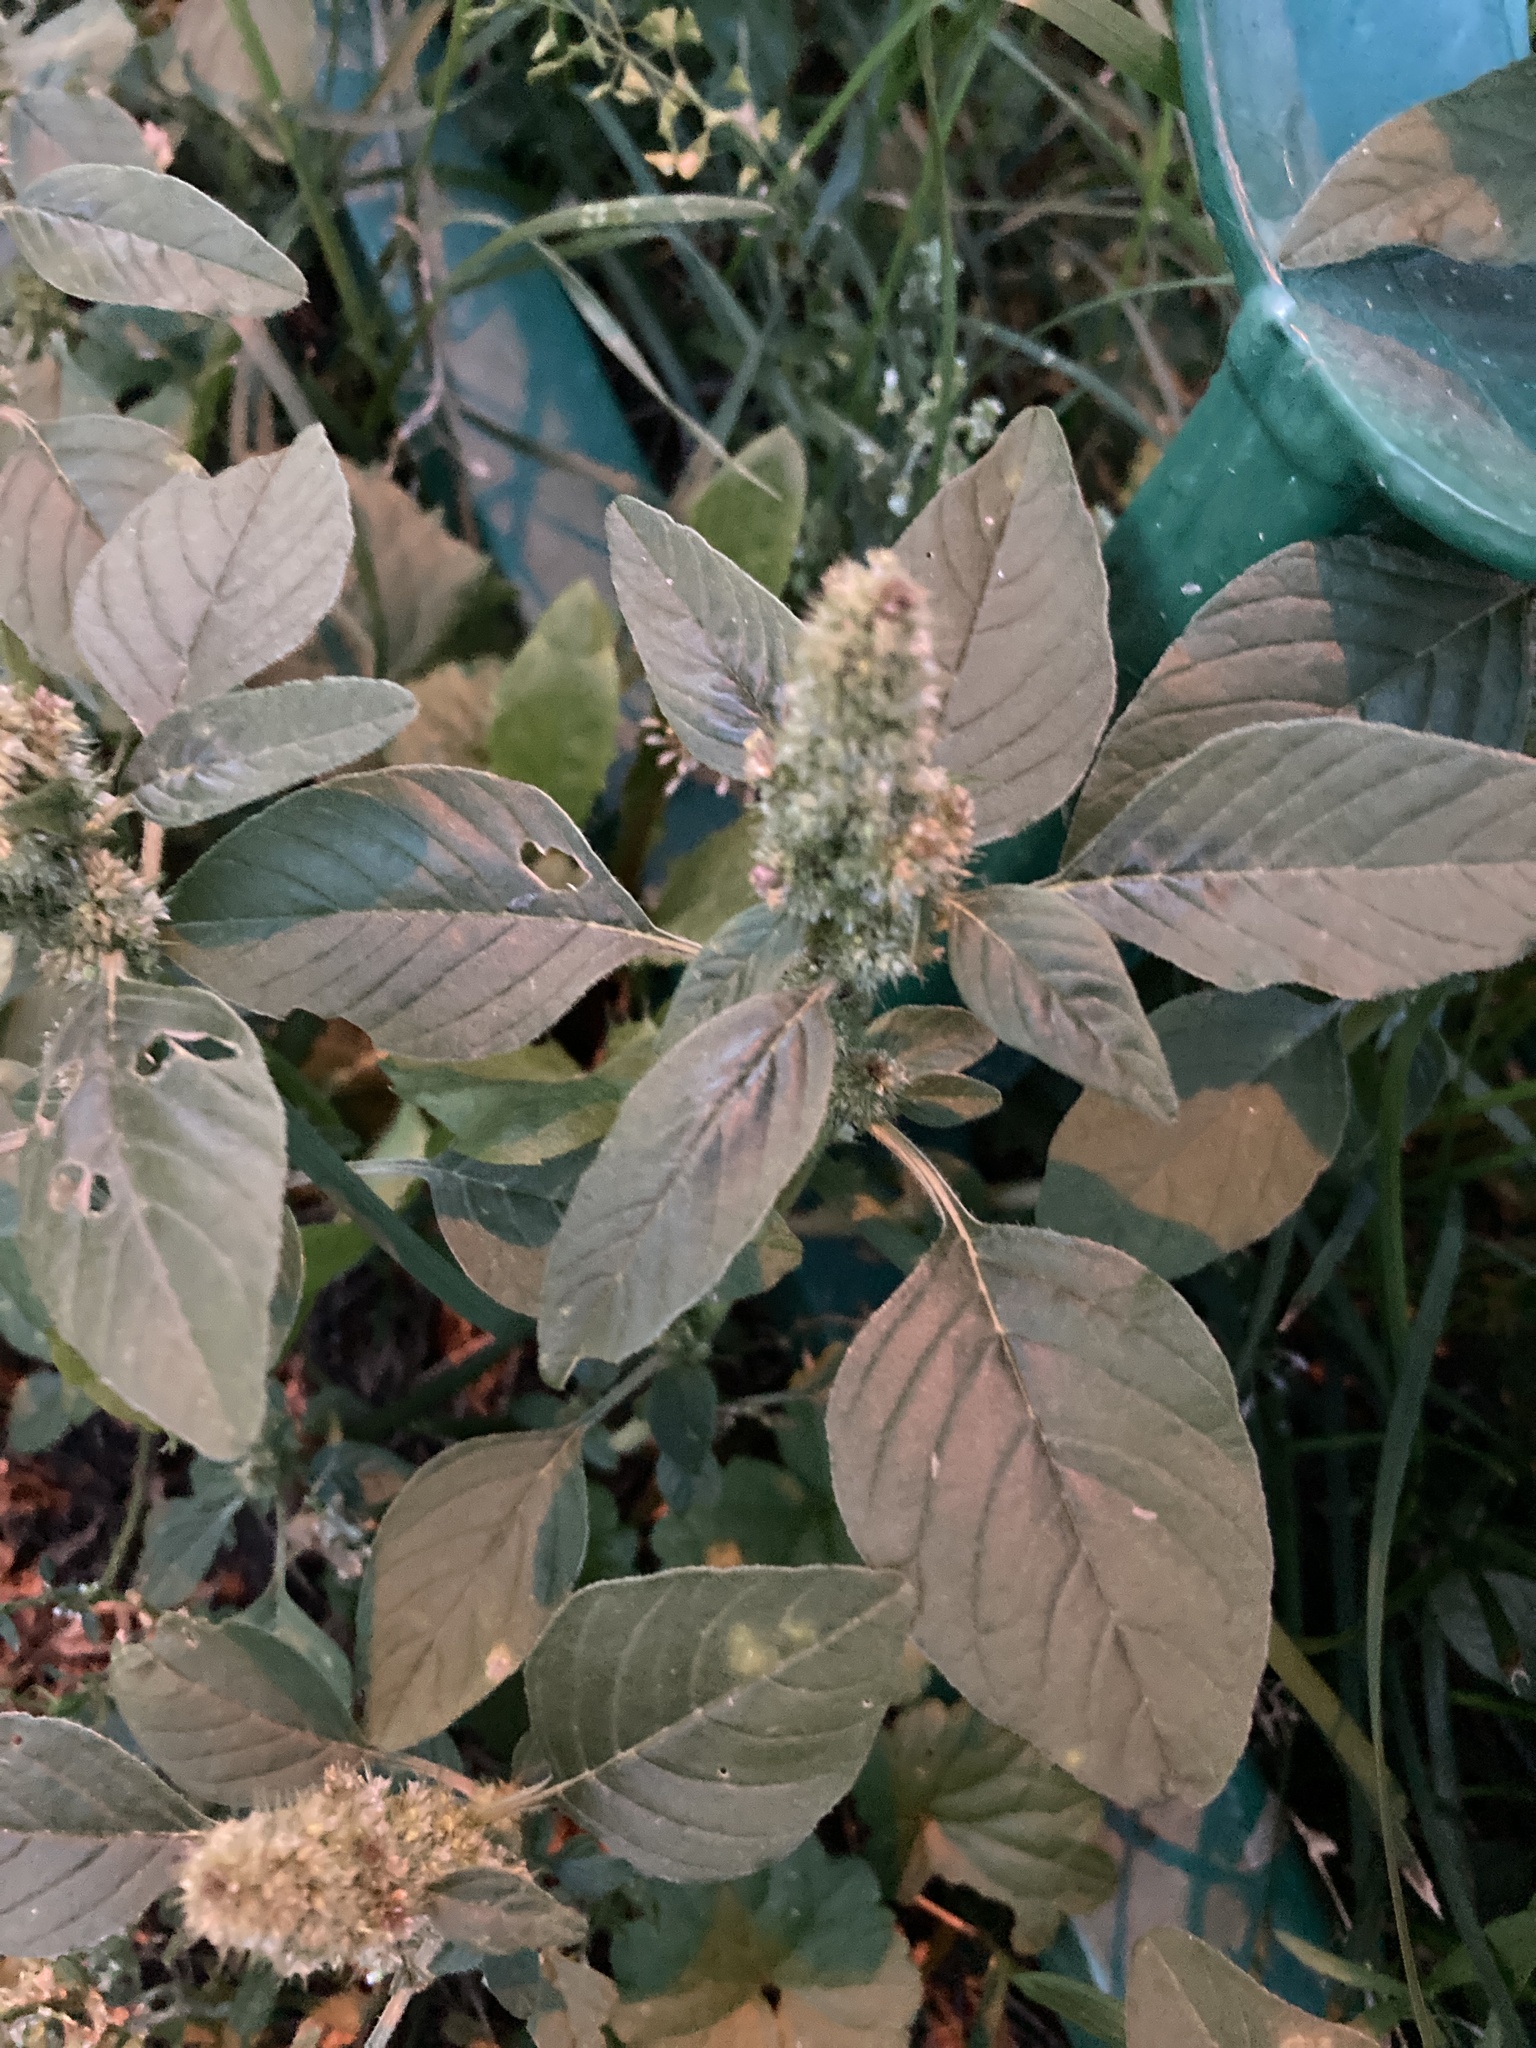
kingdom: Plantae
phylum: Tracheophyta
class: Magnoliopsida
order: Caryophyllales
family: Amaranthaceae
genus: Amaranthus
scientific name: Amaranthus retroflexus
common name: Redroot amaranth
